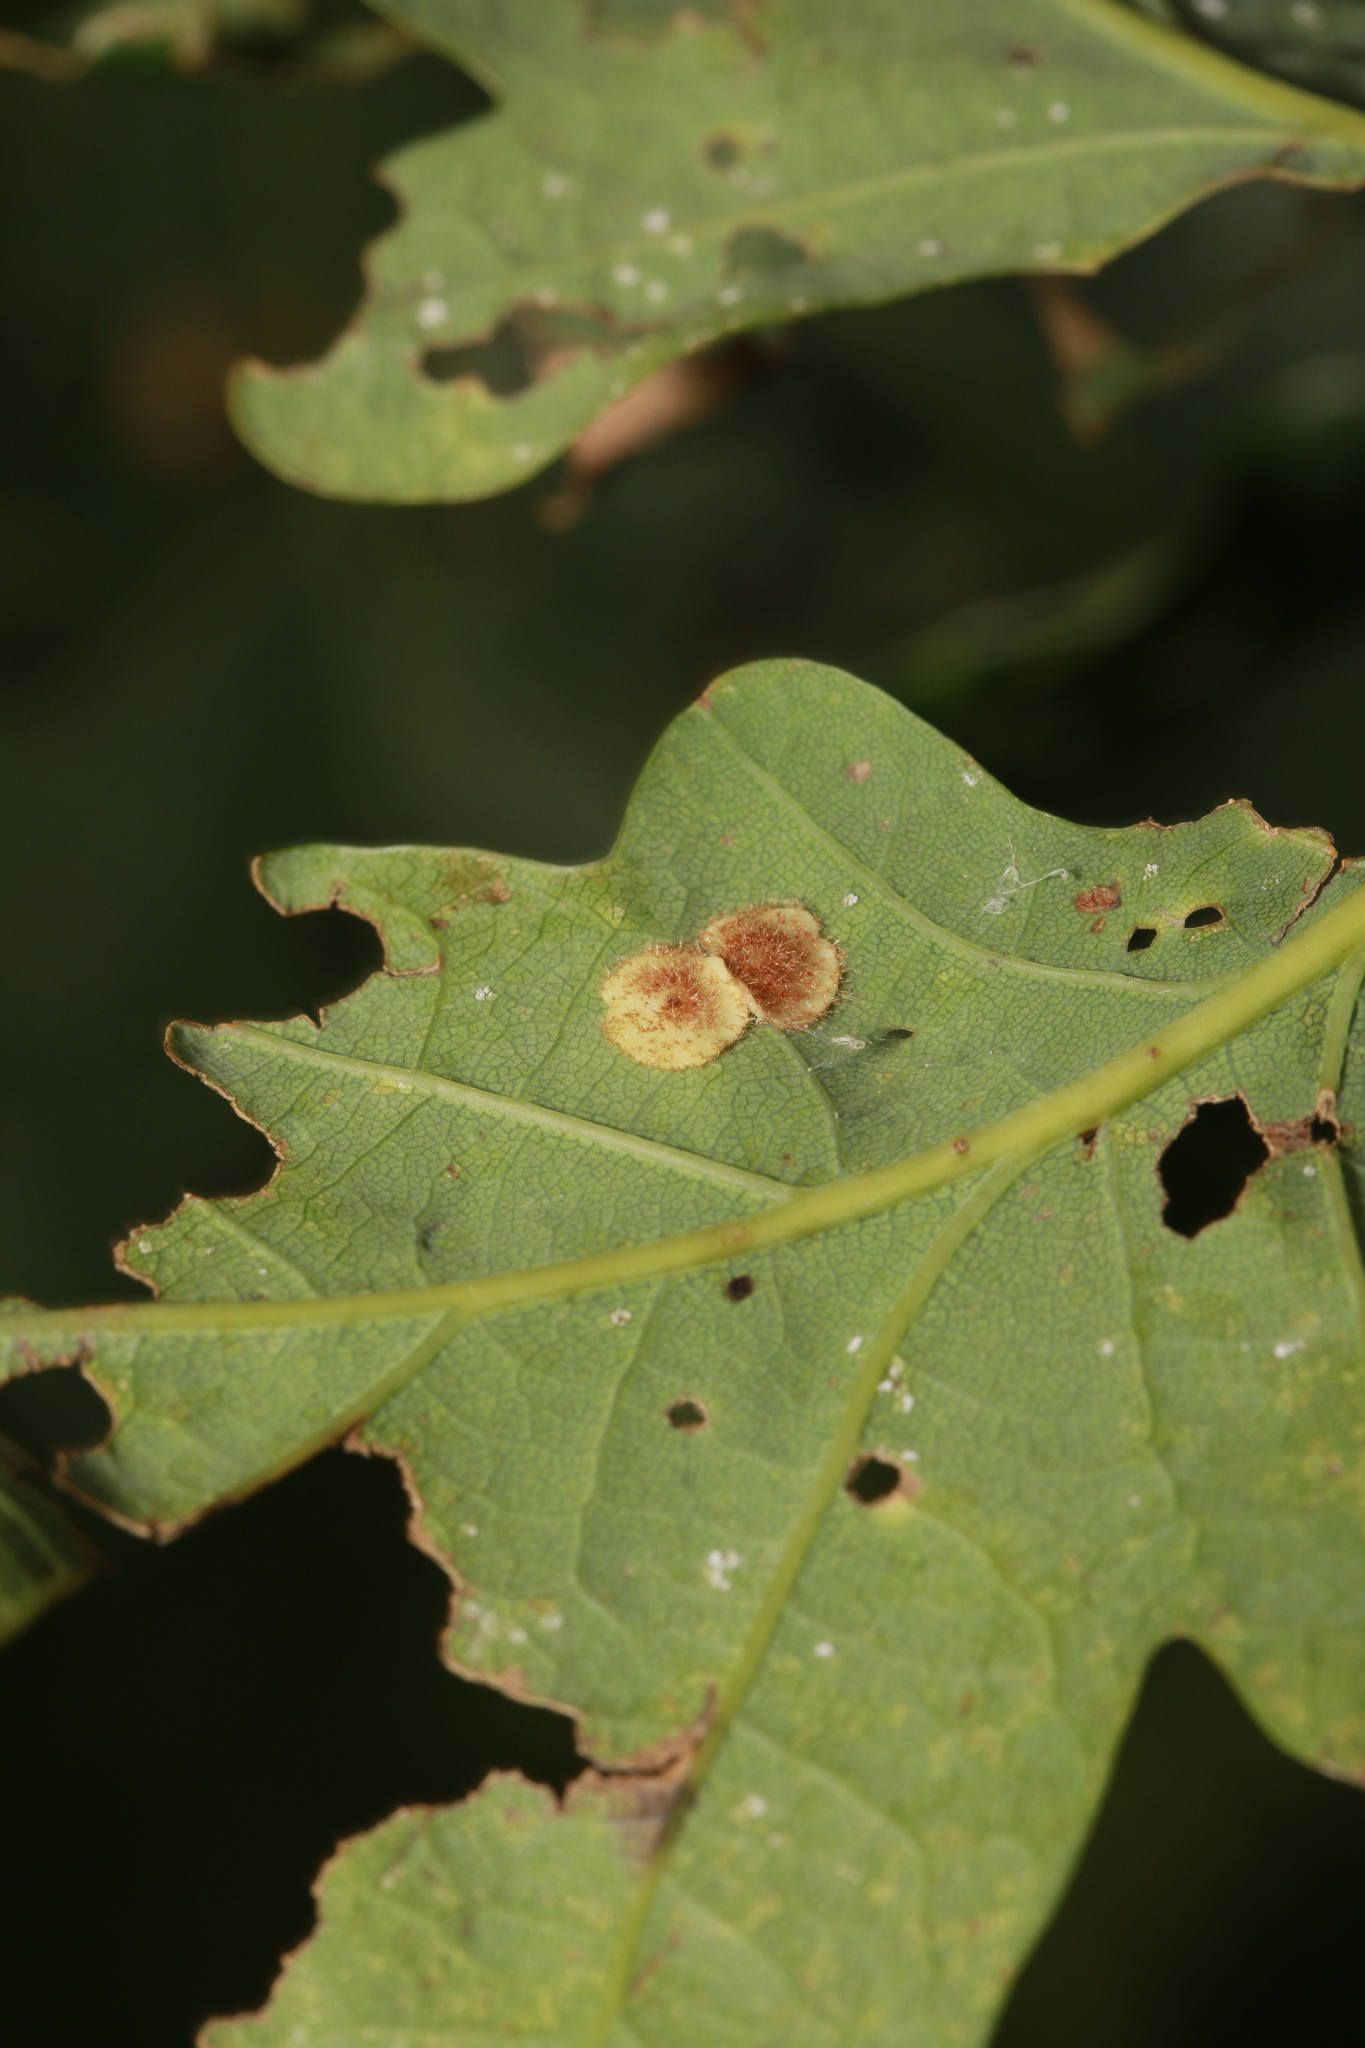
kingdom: Animalia
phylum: Arthropoda
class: Insecta
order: Hymenoptera
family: Cynipidae
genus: Neuroterus
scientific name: Neuroterus quercusbaccarum
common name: Common spangle gall
